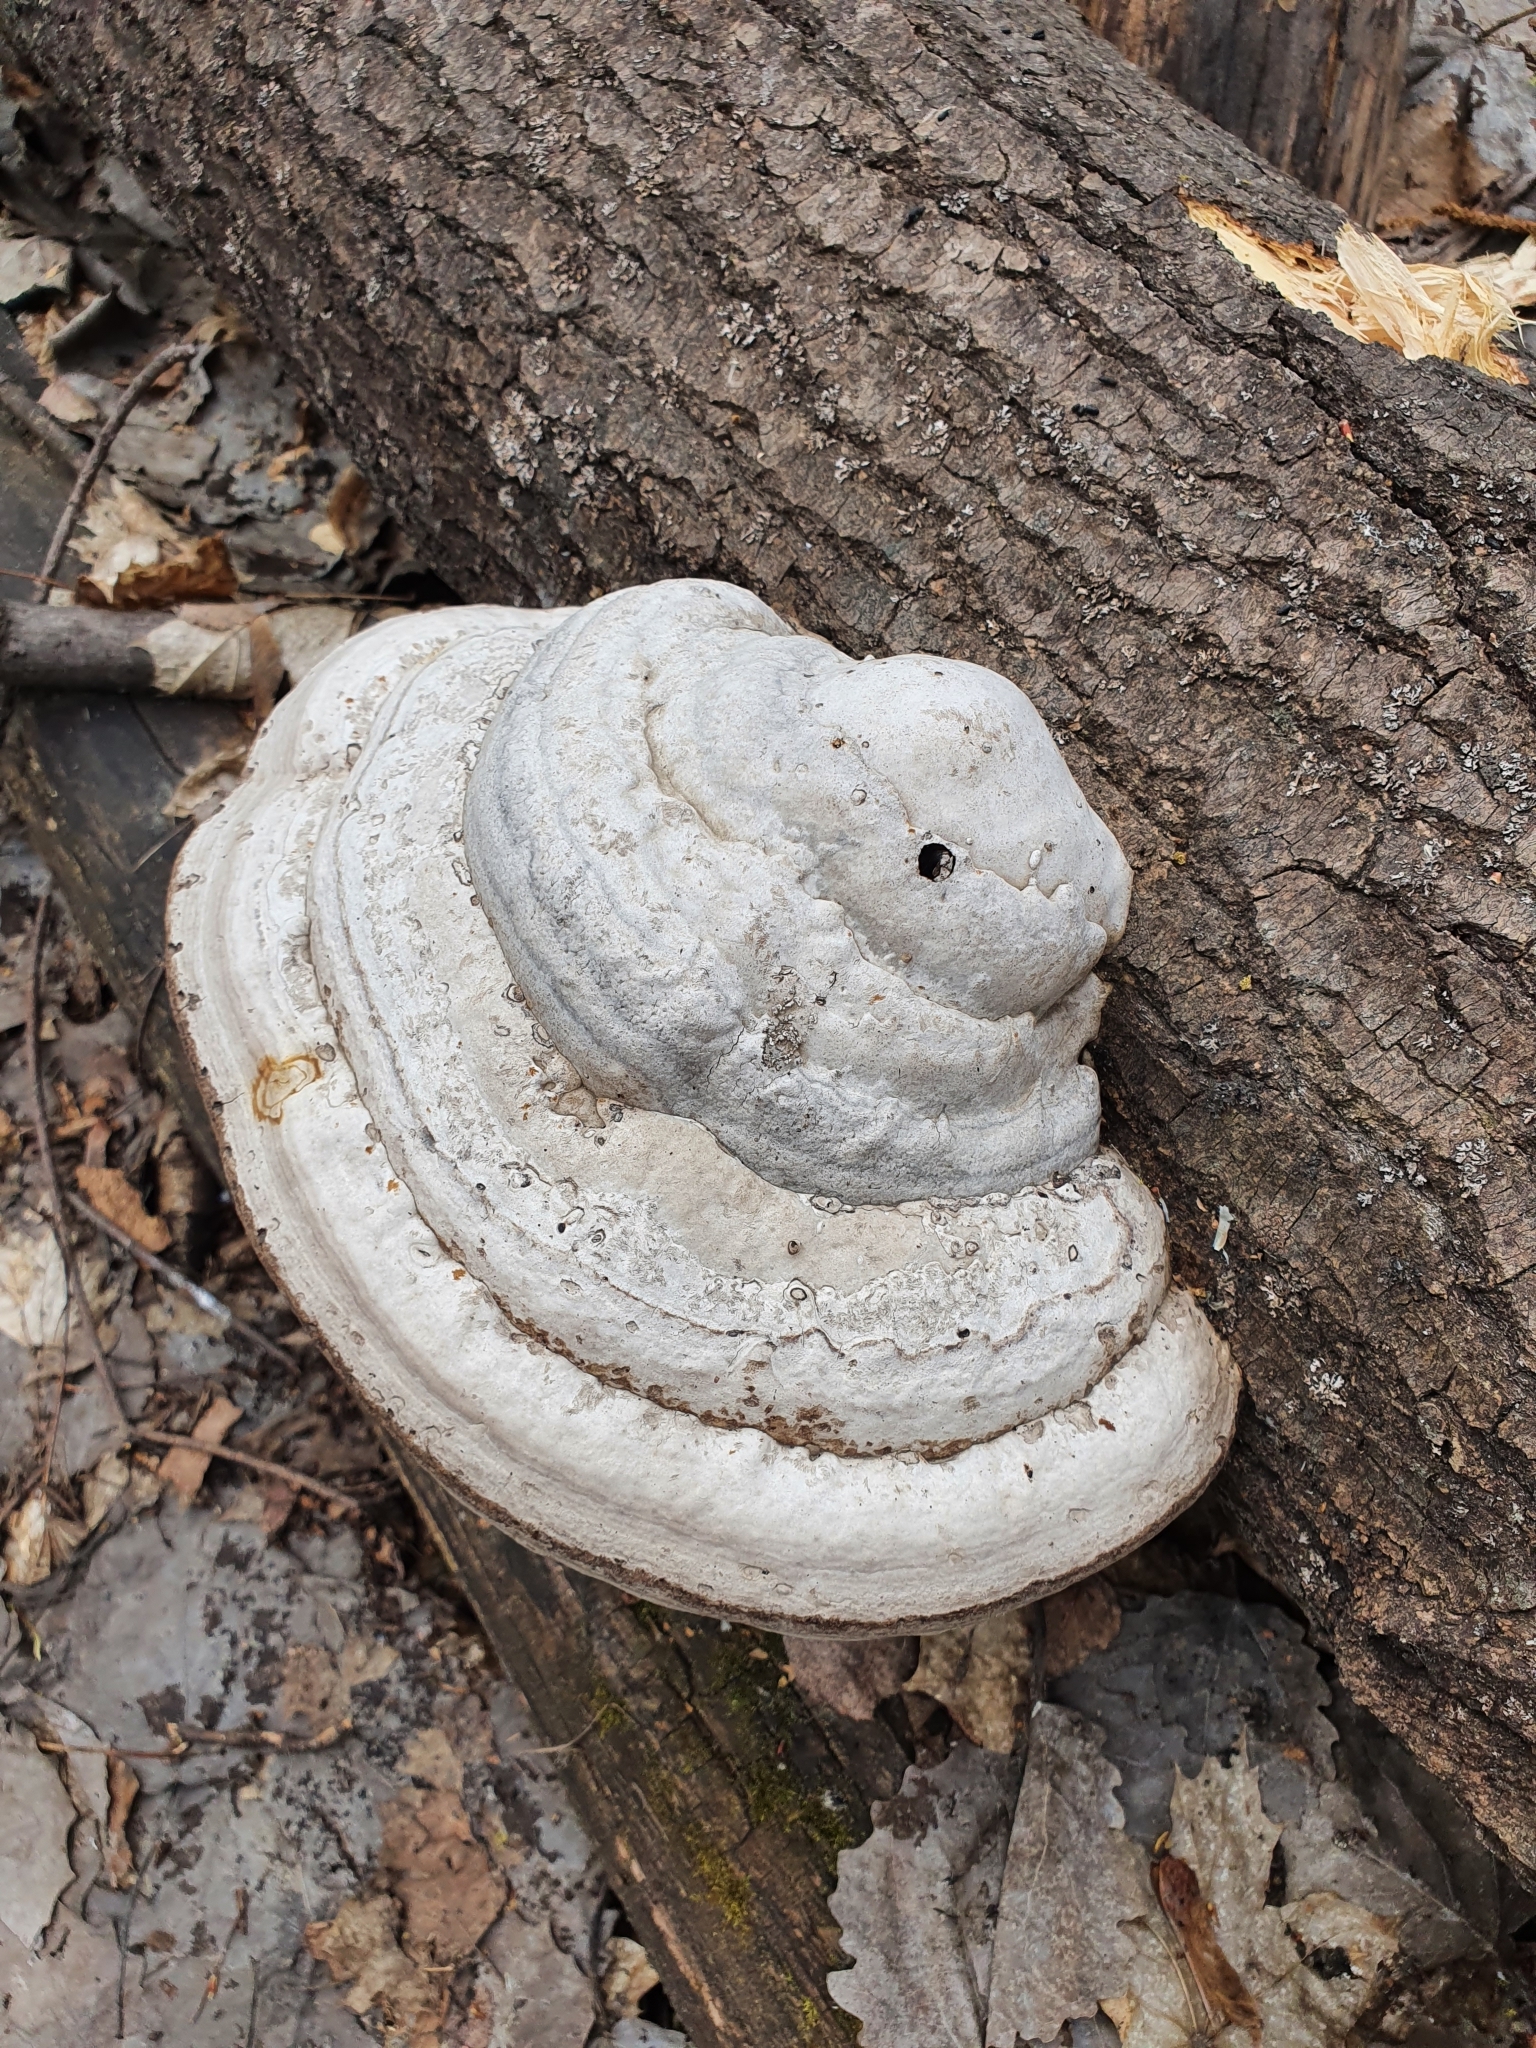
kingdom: Fungi
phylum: Basidiomycota
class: Agaricomycetes
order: Polyporales
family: Polyporaceae
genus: Fomes
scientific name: Fomes fomentarius
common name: Hoof fungus
